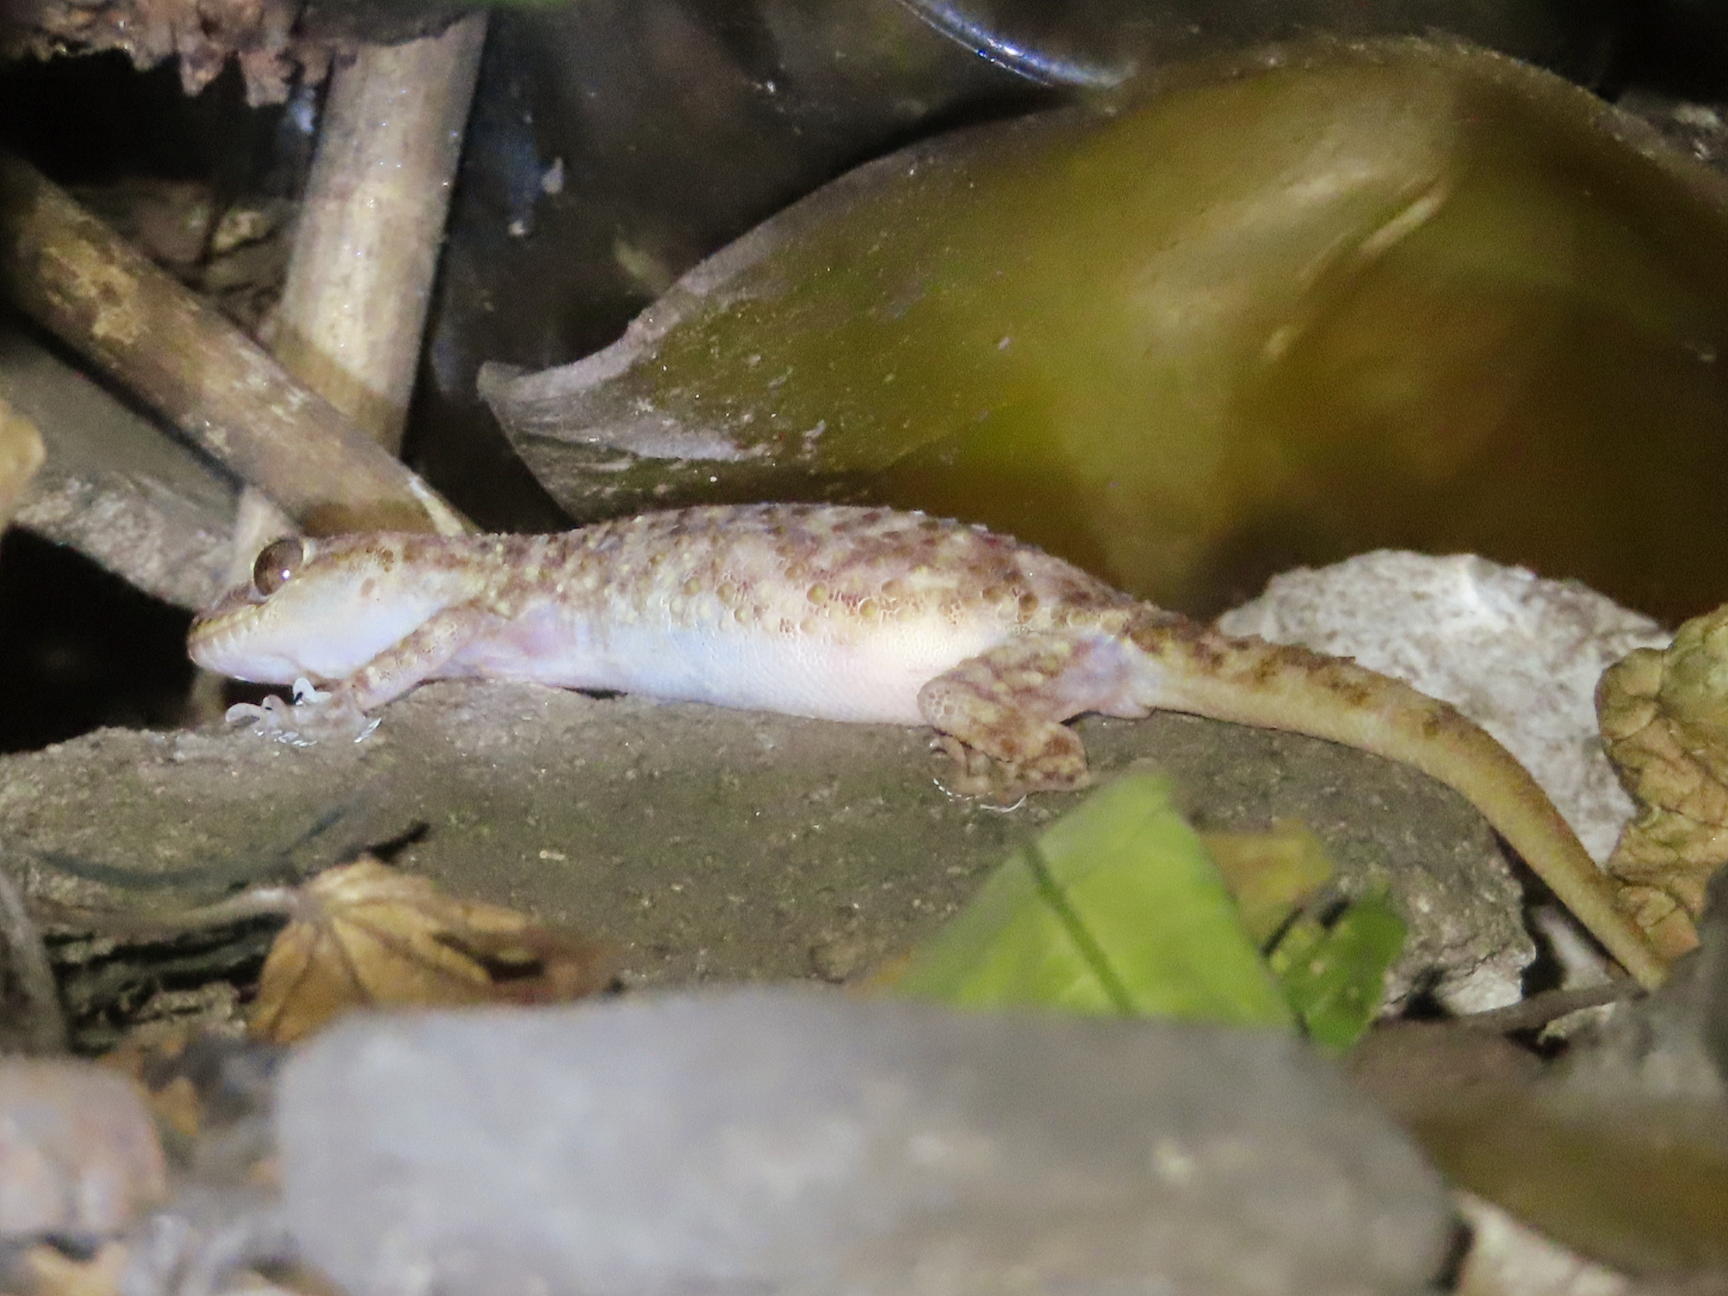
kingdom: Animalia
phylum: Chordata
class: Squamata
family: Gekkonidae
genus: Hemidactylus
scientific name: Hemidactylus turcicus
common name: Turkish gecko
